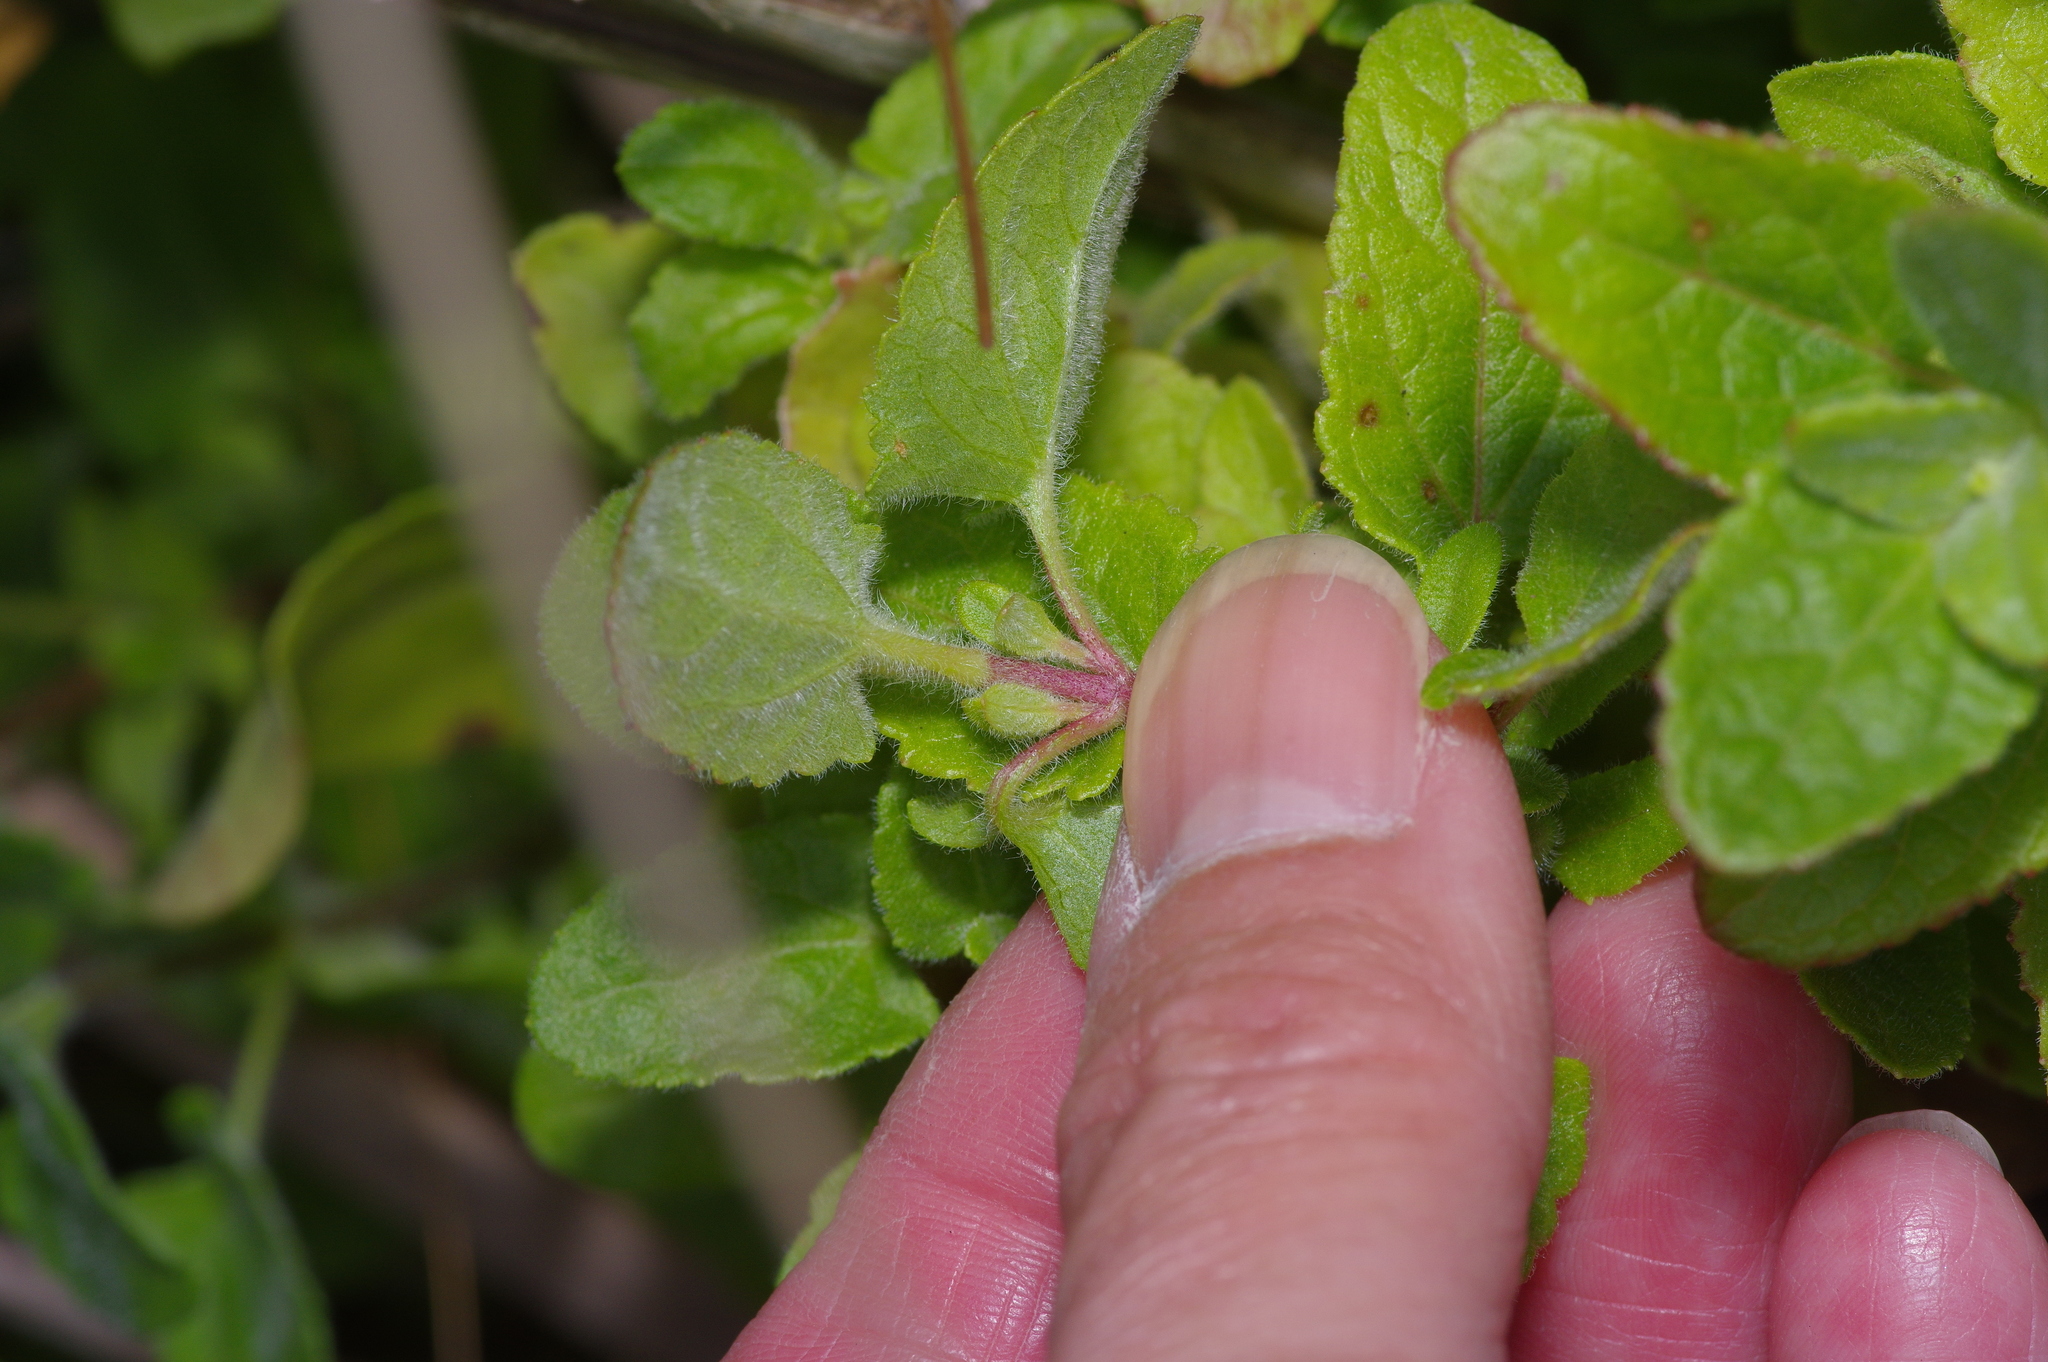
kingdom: Plantae
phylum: Tracheophyta
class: Magnoliopsida
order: Asterales
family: Asteraceae
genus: Conoclinium
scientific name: Conoclinium betonicifolium
